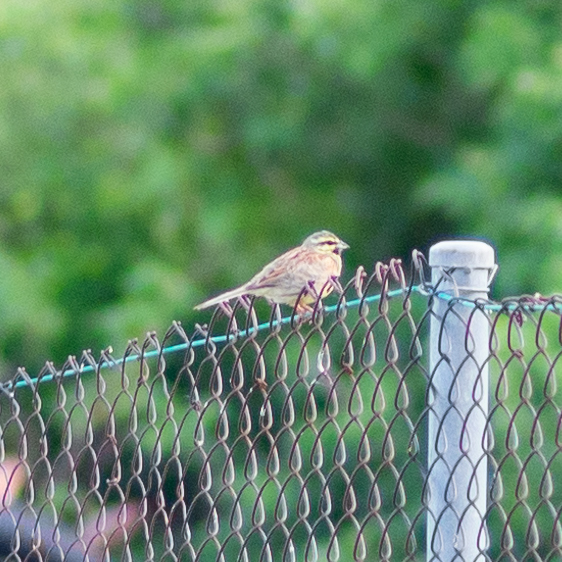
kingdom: Animalia
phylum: Chordata
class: Aves
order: Passeriformes
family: Emberizidae
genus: Emberiza
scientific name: Emberiza cirlus
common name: Cirl bunting
